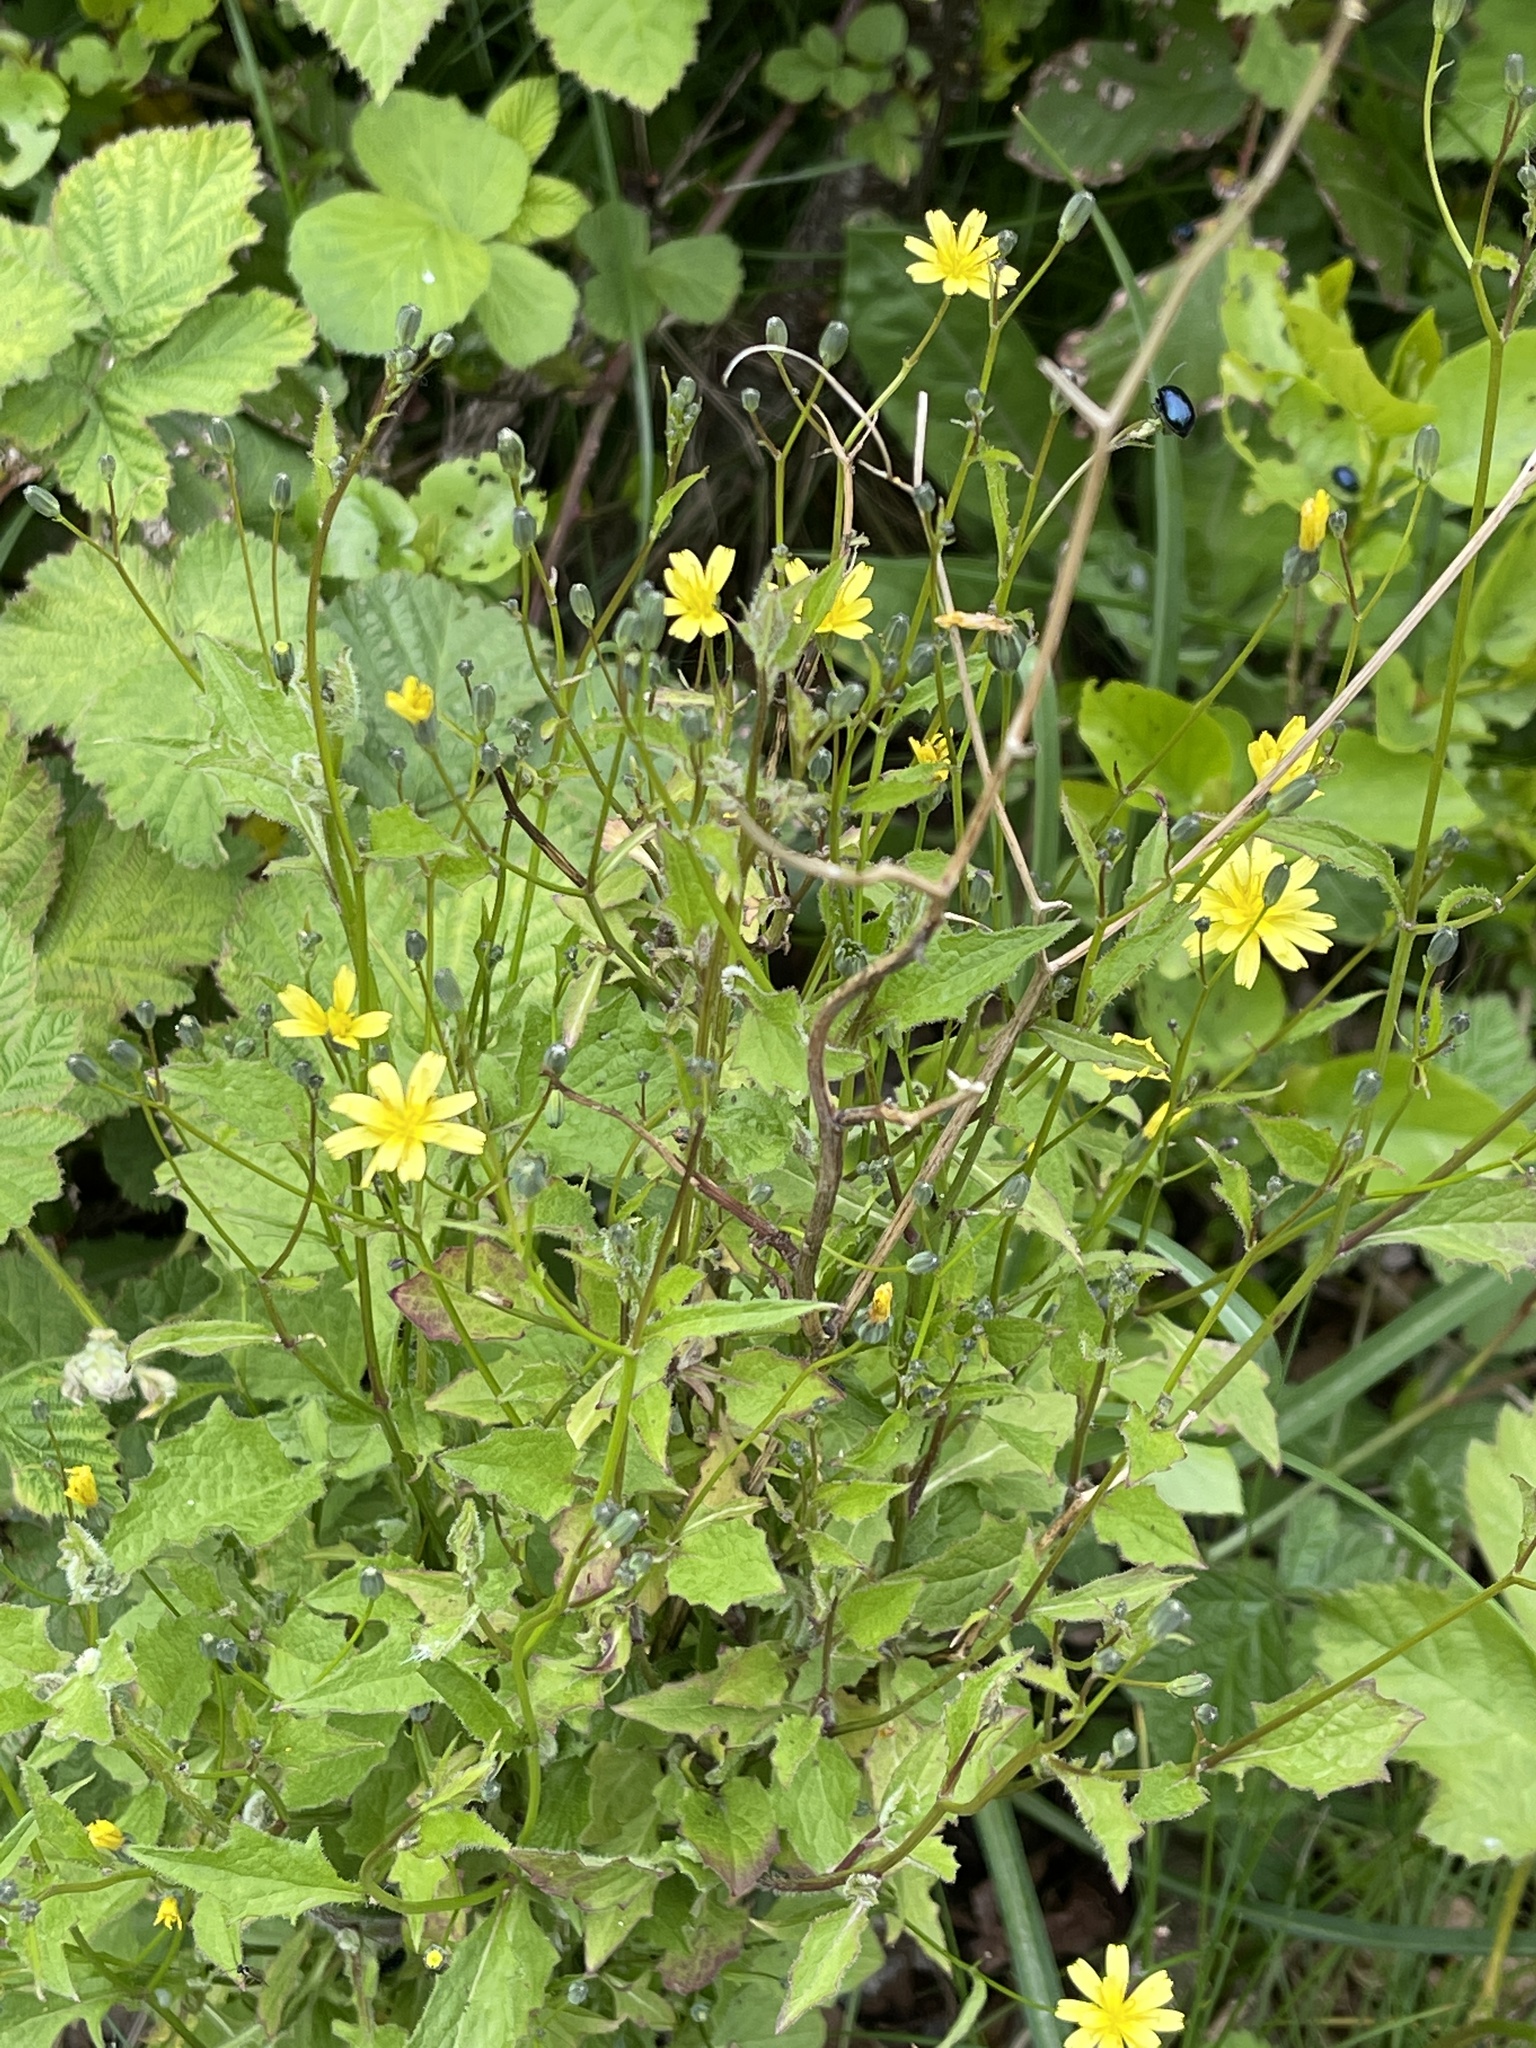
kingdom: Plantae
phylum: Tracheophyta
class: Magnoliopsida
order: Asterales
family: Asteraceae
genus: Lapsana
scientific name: Lapsana communis
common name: Nipplewort
